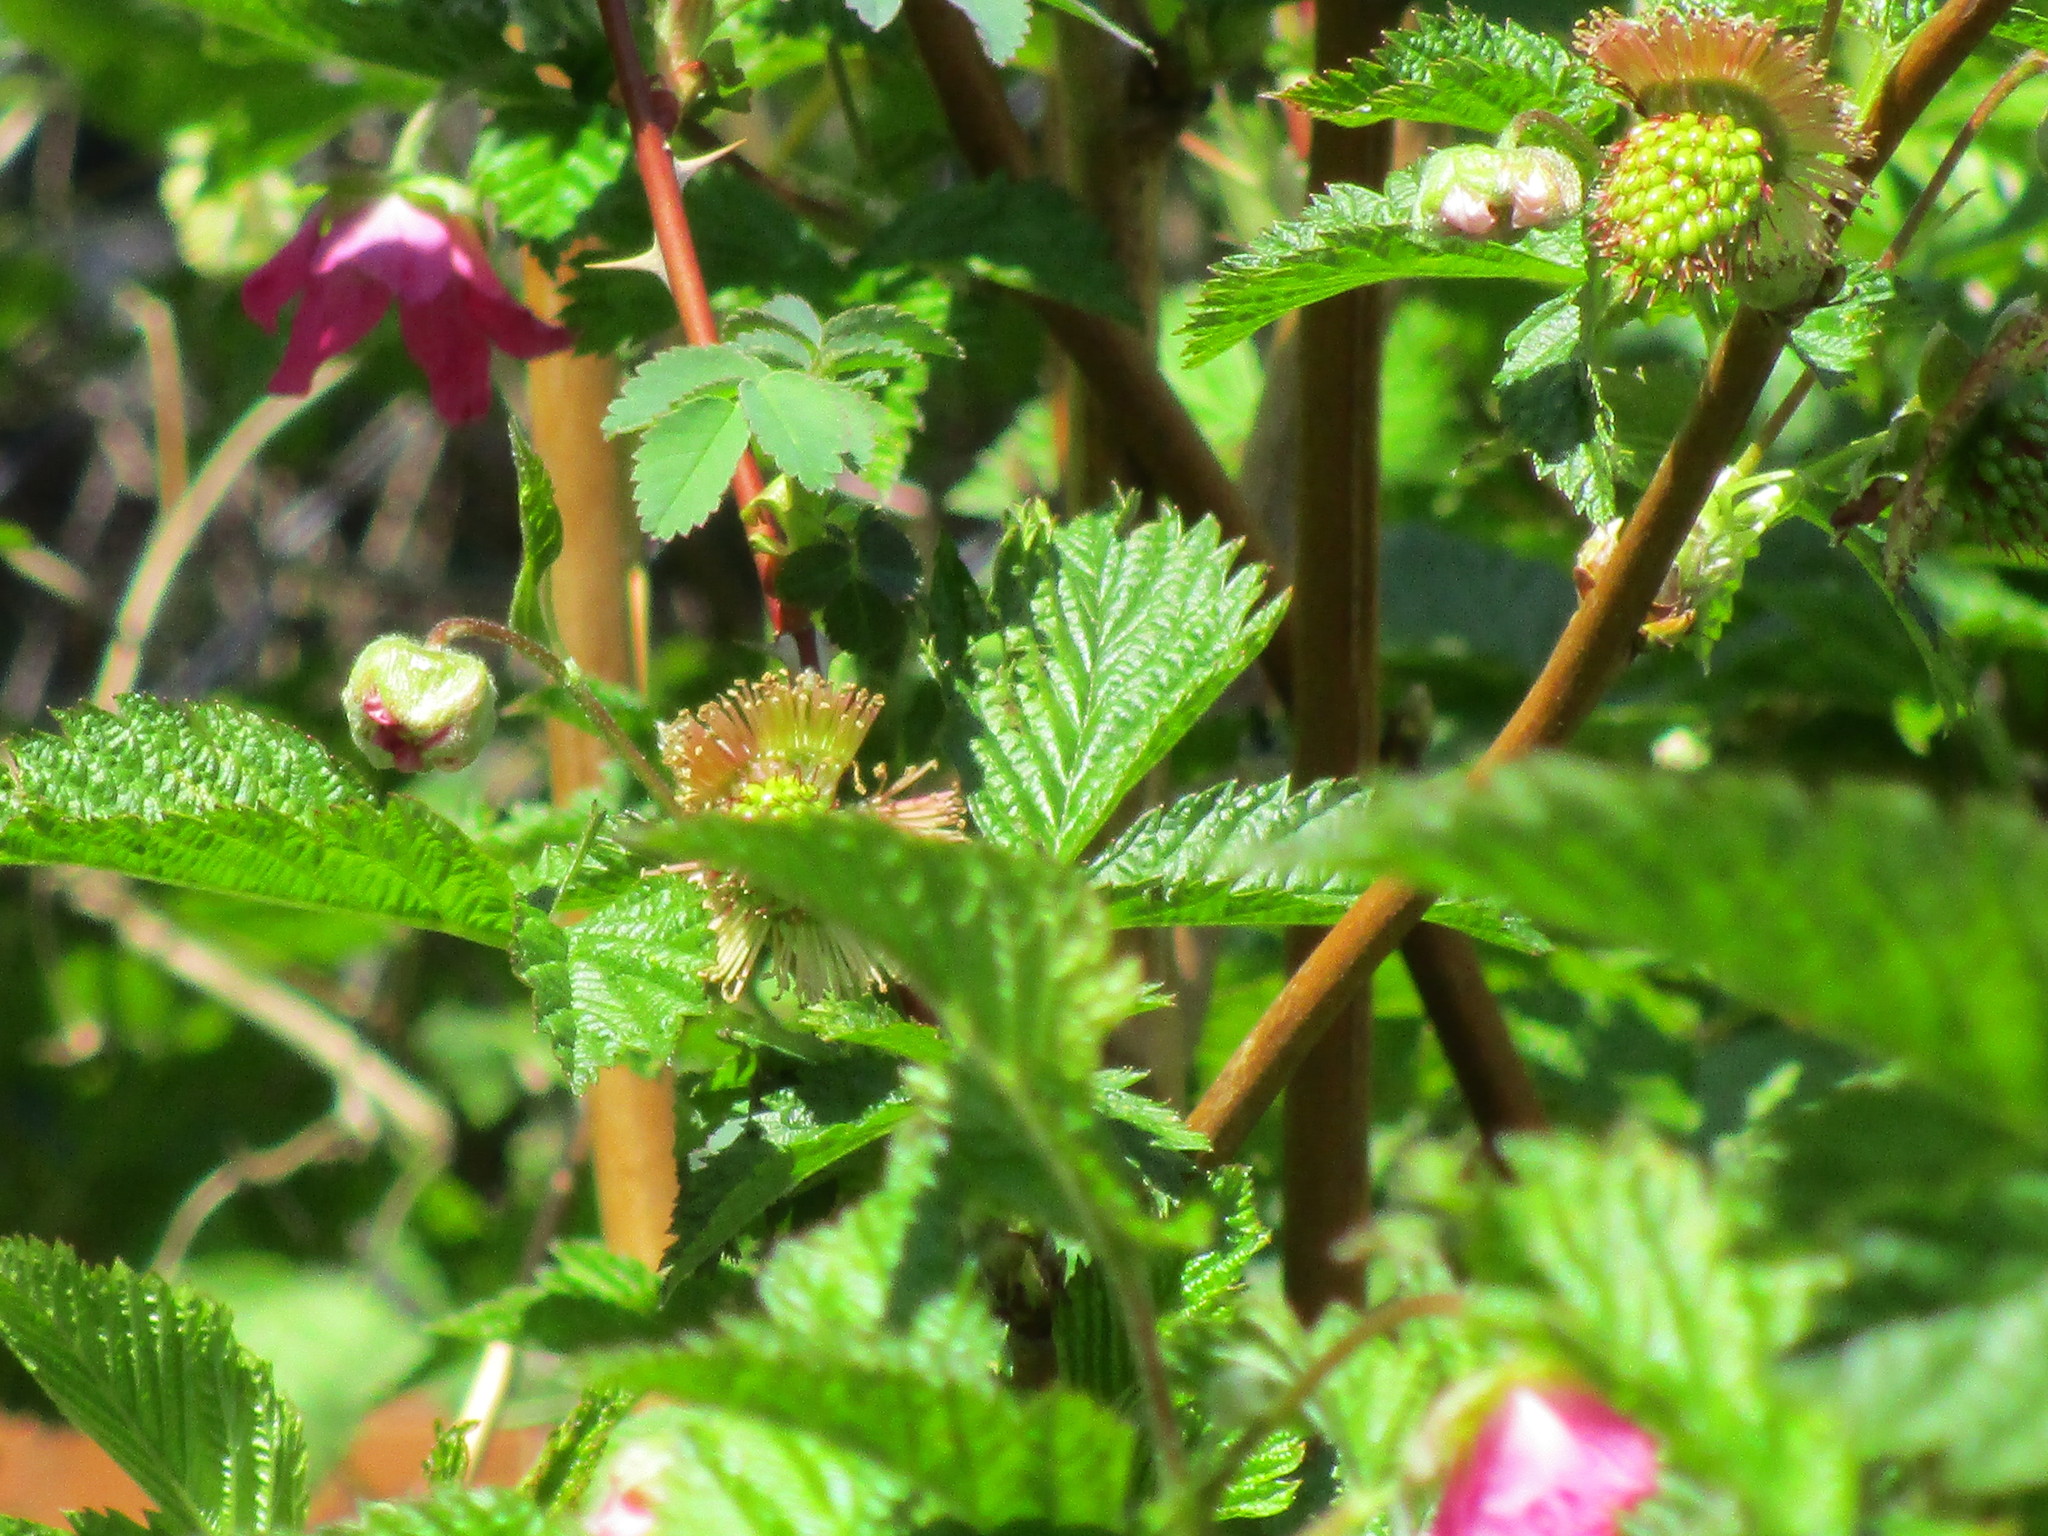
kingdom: Plantae
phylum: Tracheophyta
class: Magnoliopsida
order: Rosales
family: Rosaceae
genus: Rubus
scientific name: Rubus spectabilis
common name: Salmonberry
